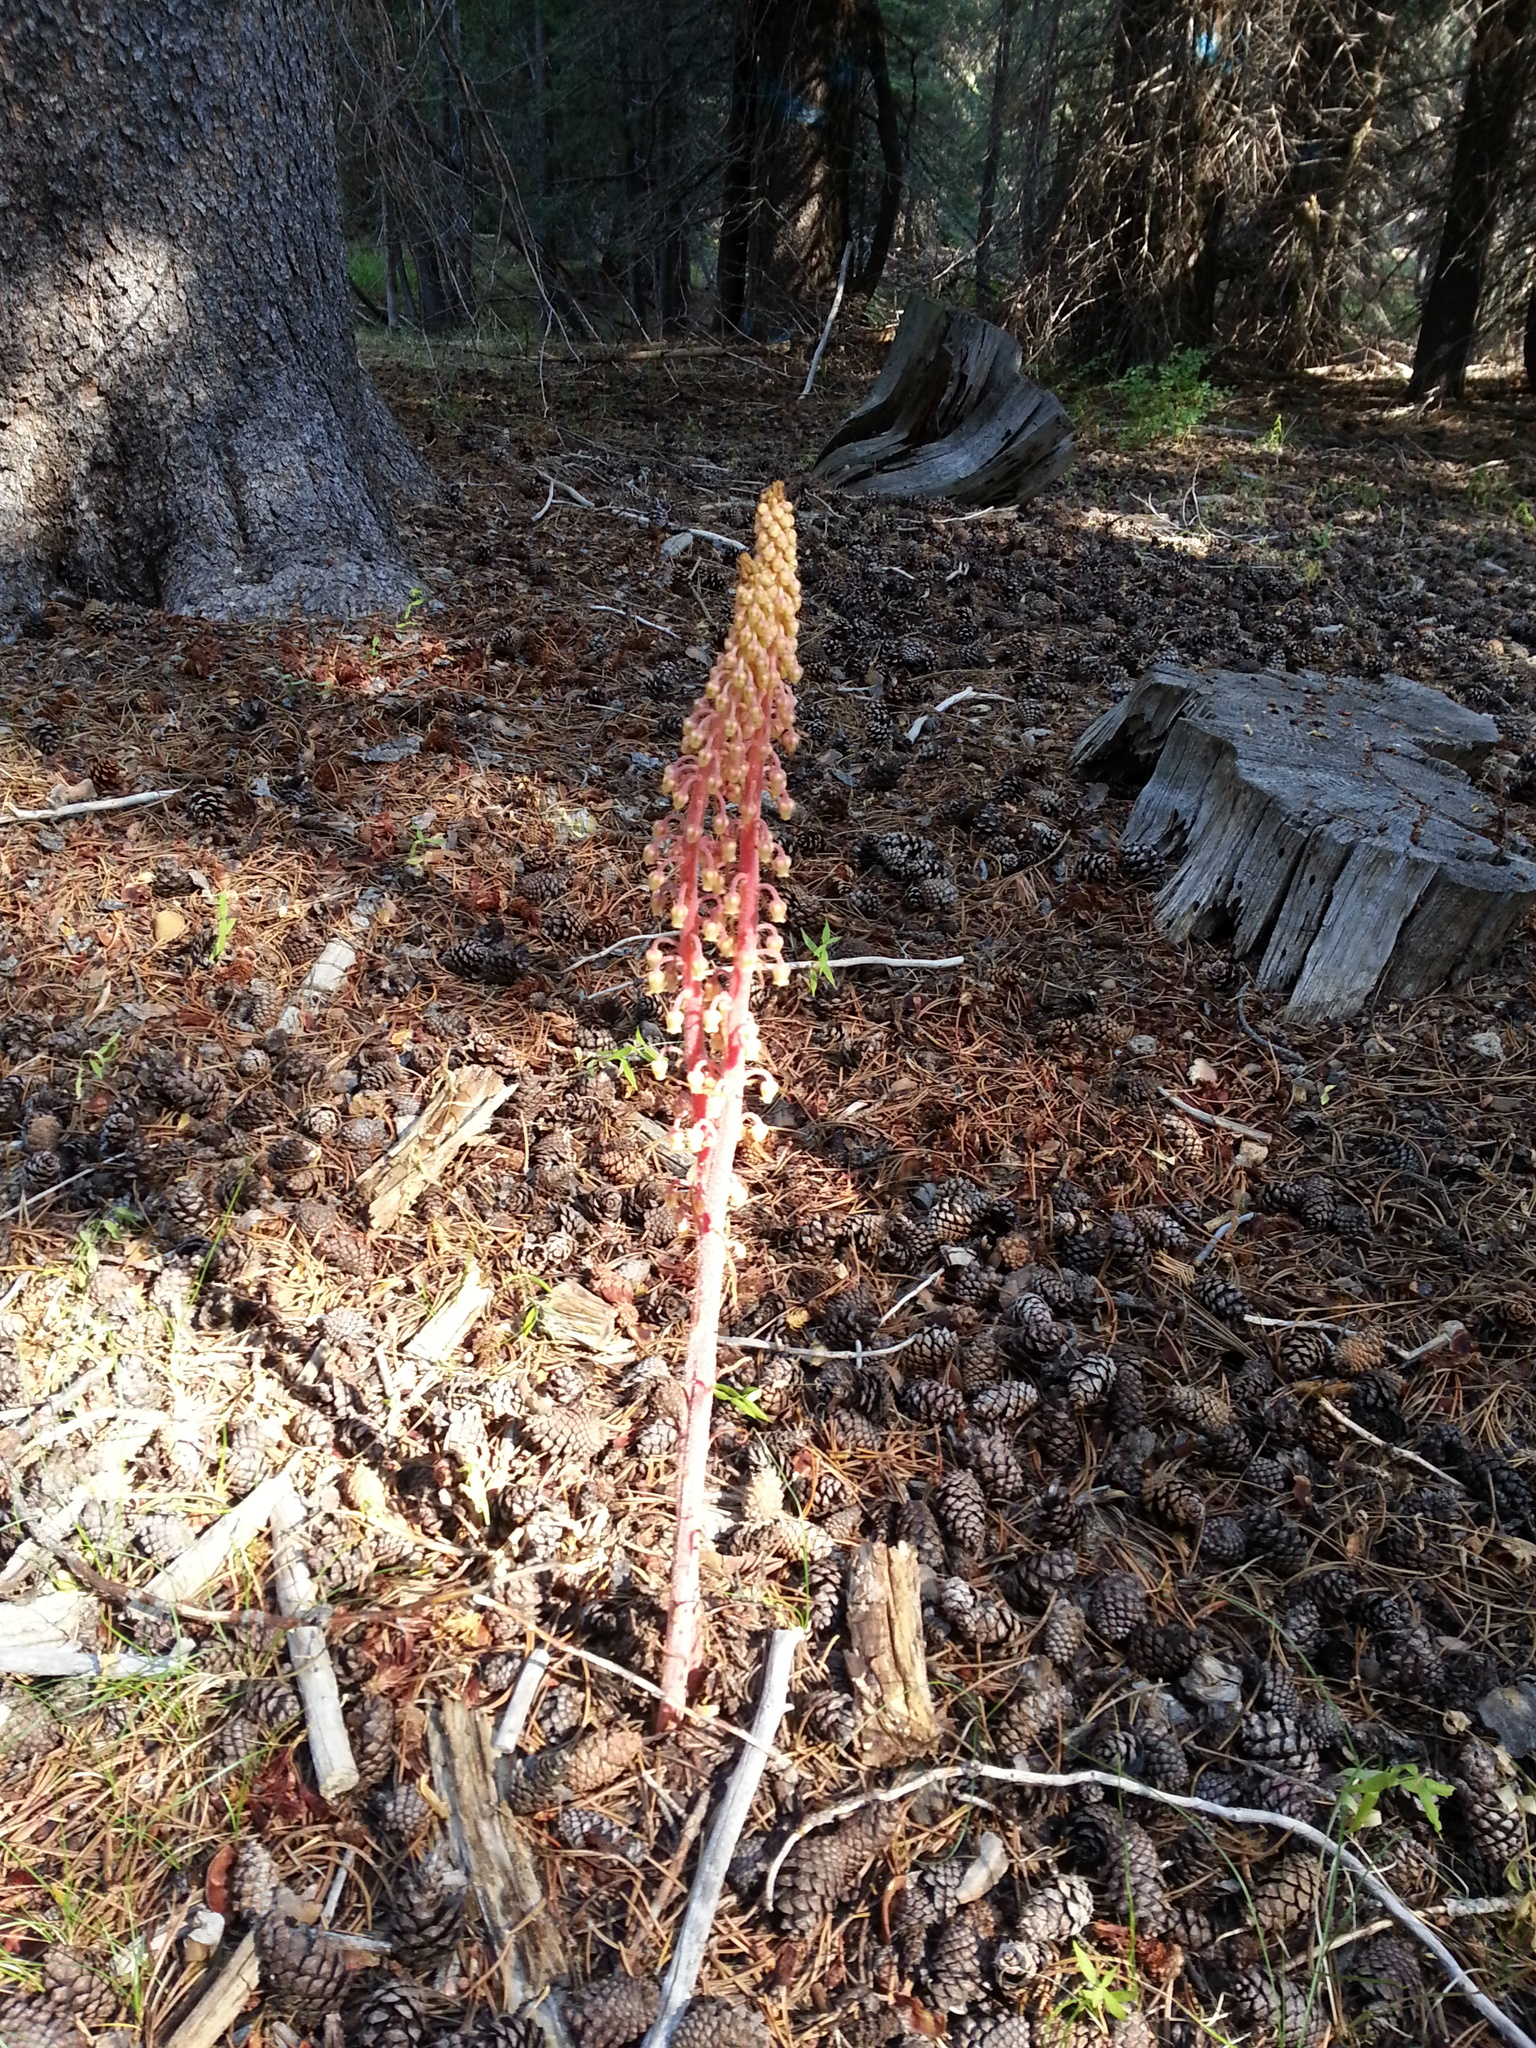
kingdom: Plantae
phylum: Tracheophyta
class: Magnoliopsida
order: Ericales
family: Ericaceae
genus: Pterospora
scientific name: Pterospora andromedea
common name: Giant bird's-nest
